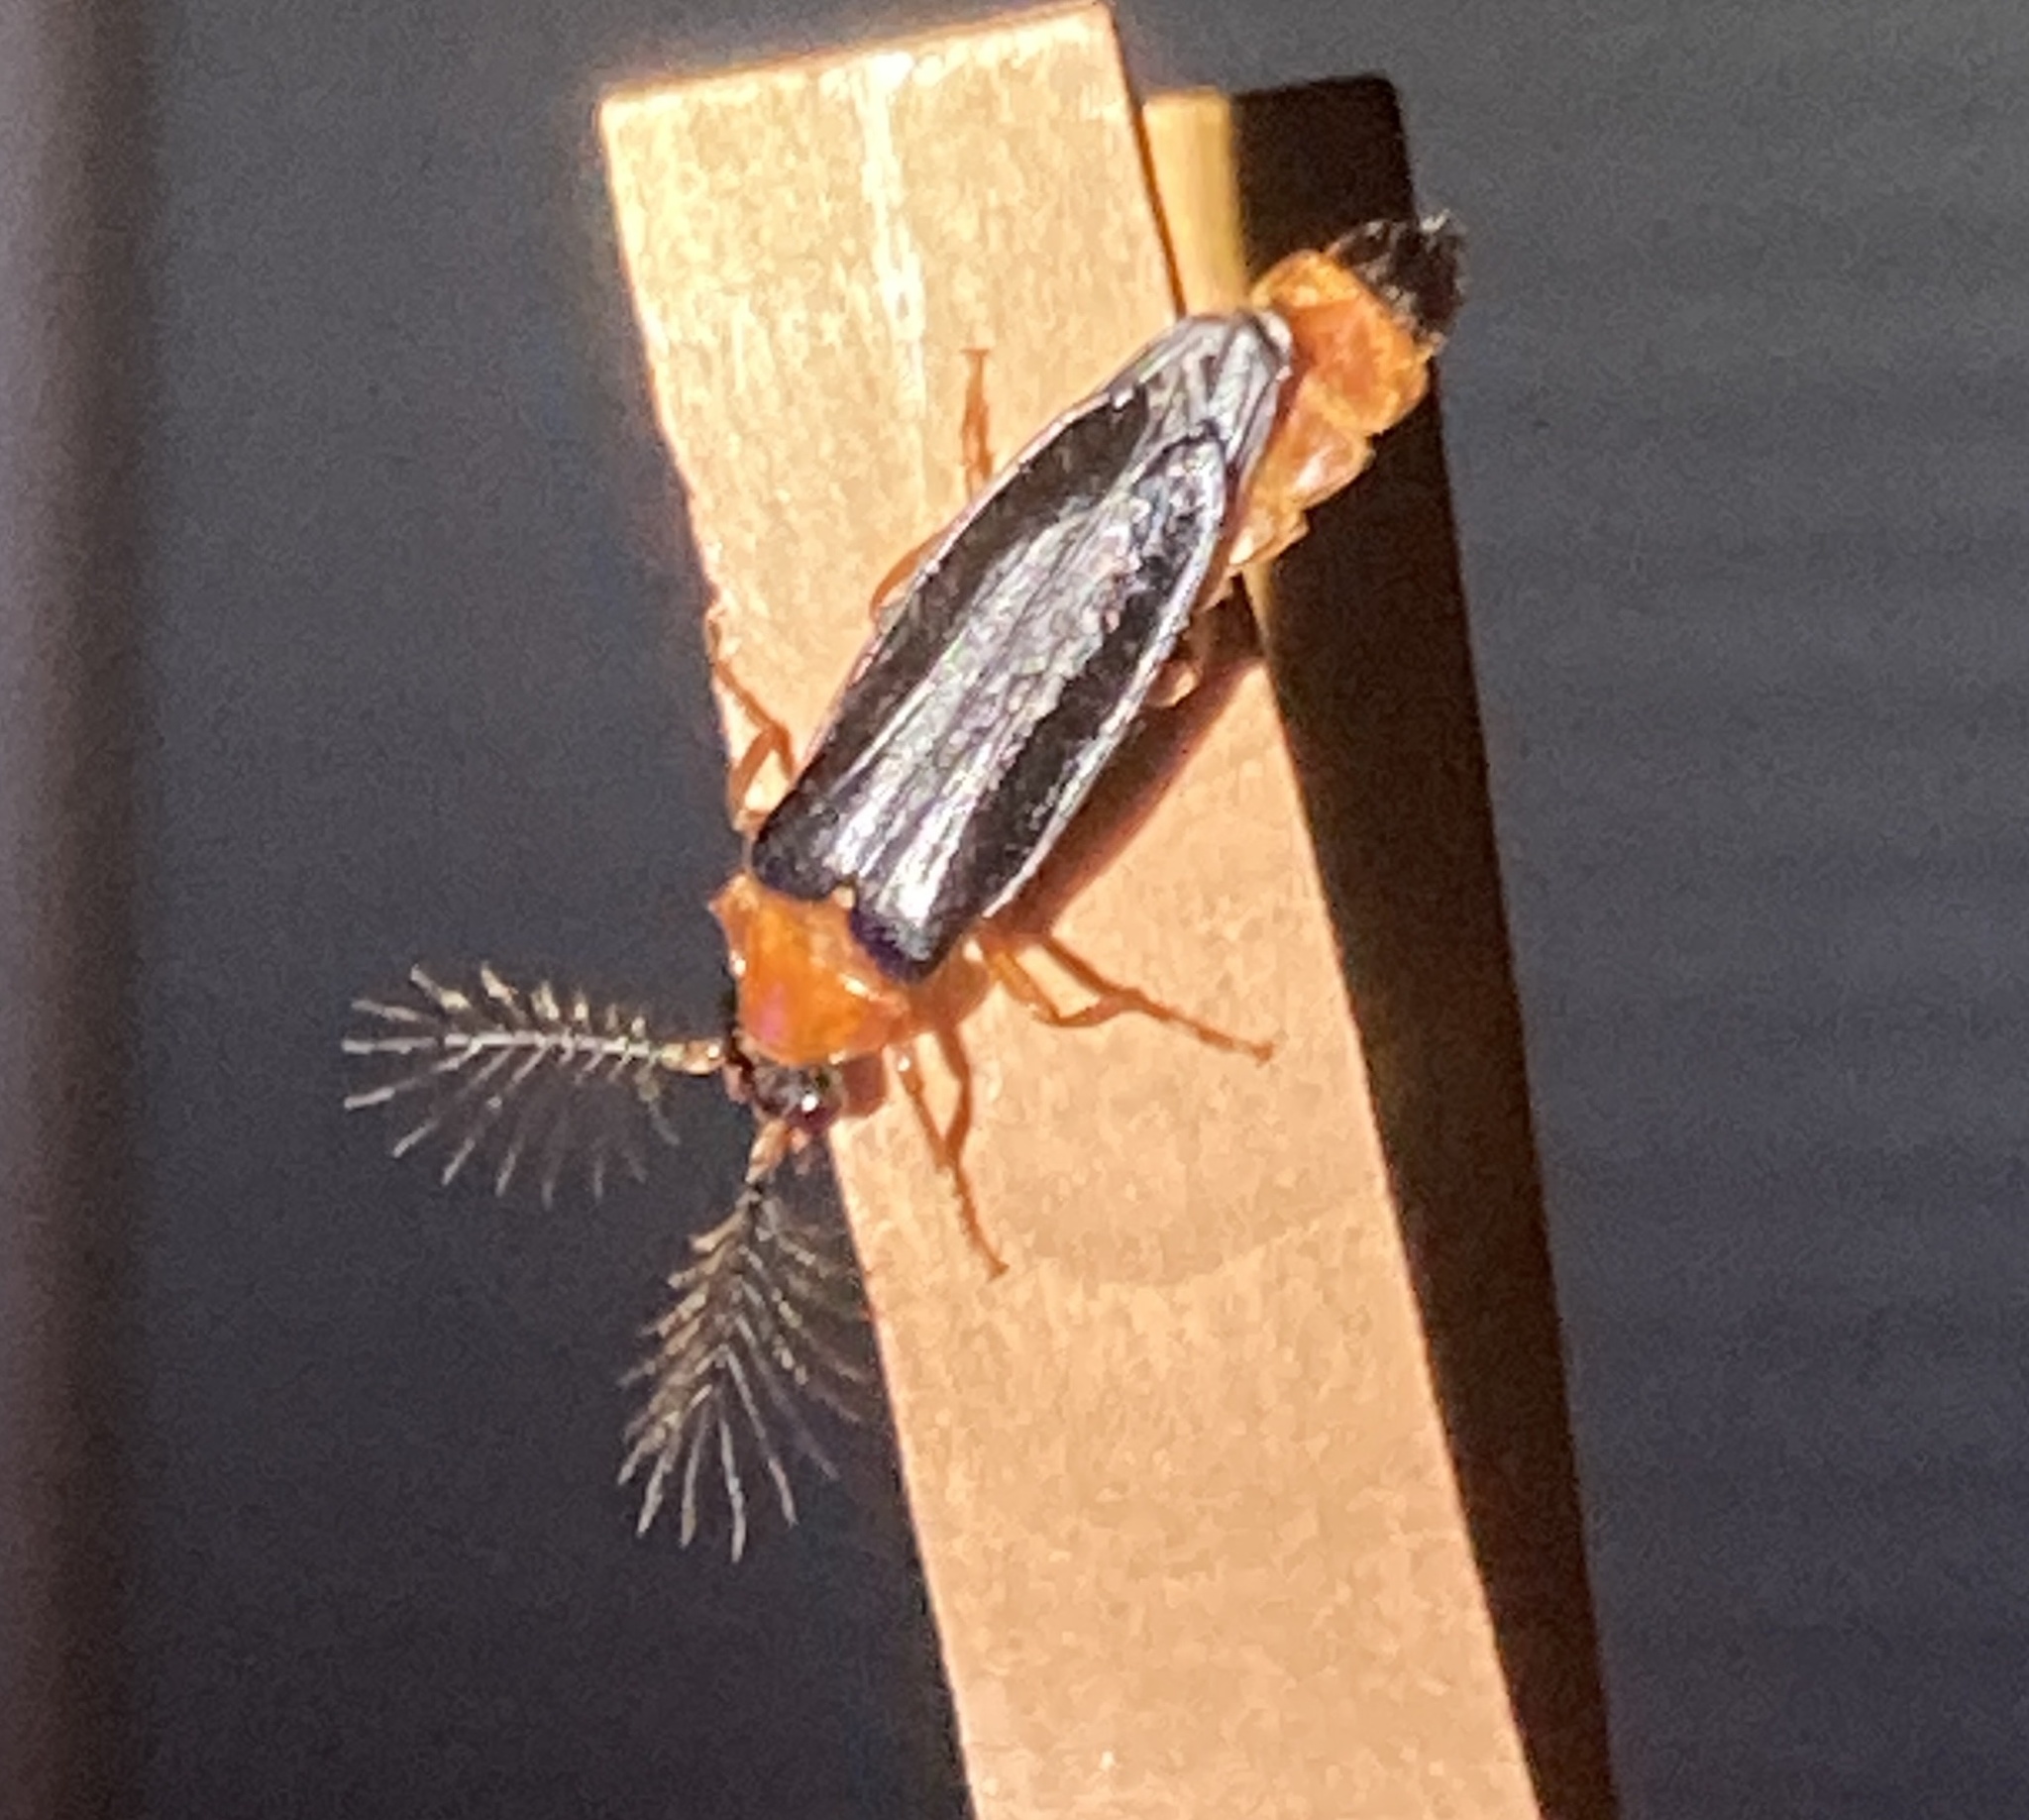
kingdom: Animalia
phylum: Arthropoda
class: Insecta
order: Coleoptera
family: Phengodidae
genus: Zarhipis
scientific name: Zarhipis integripennis
